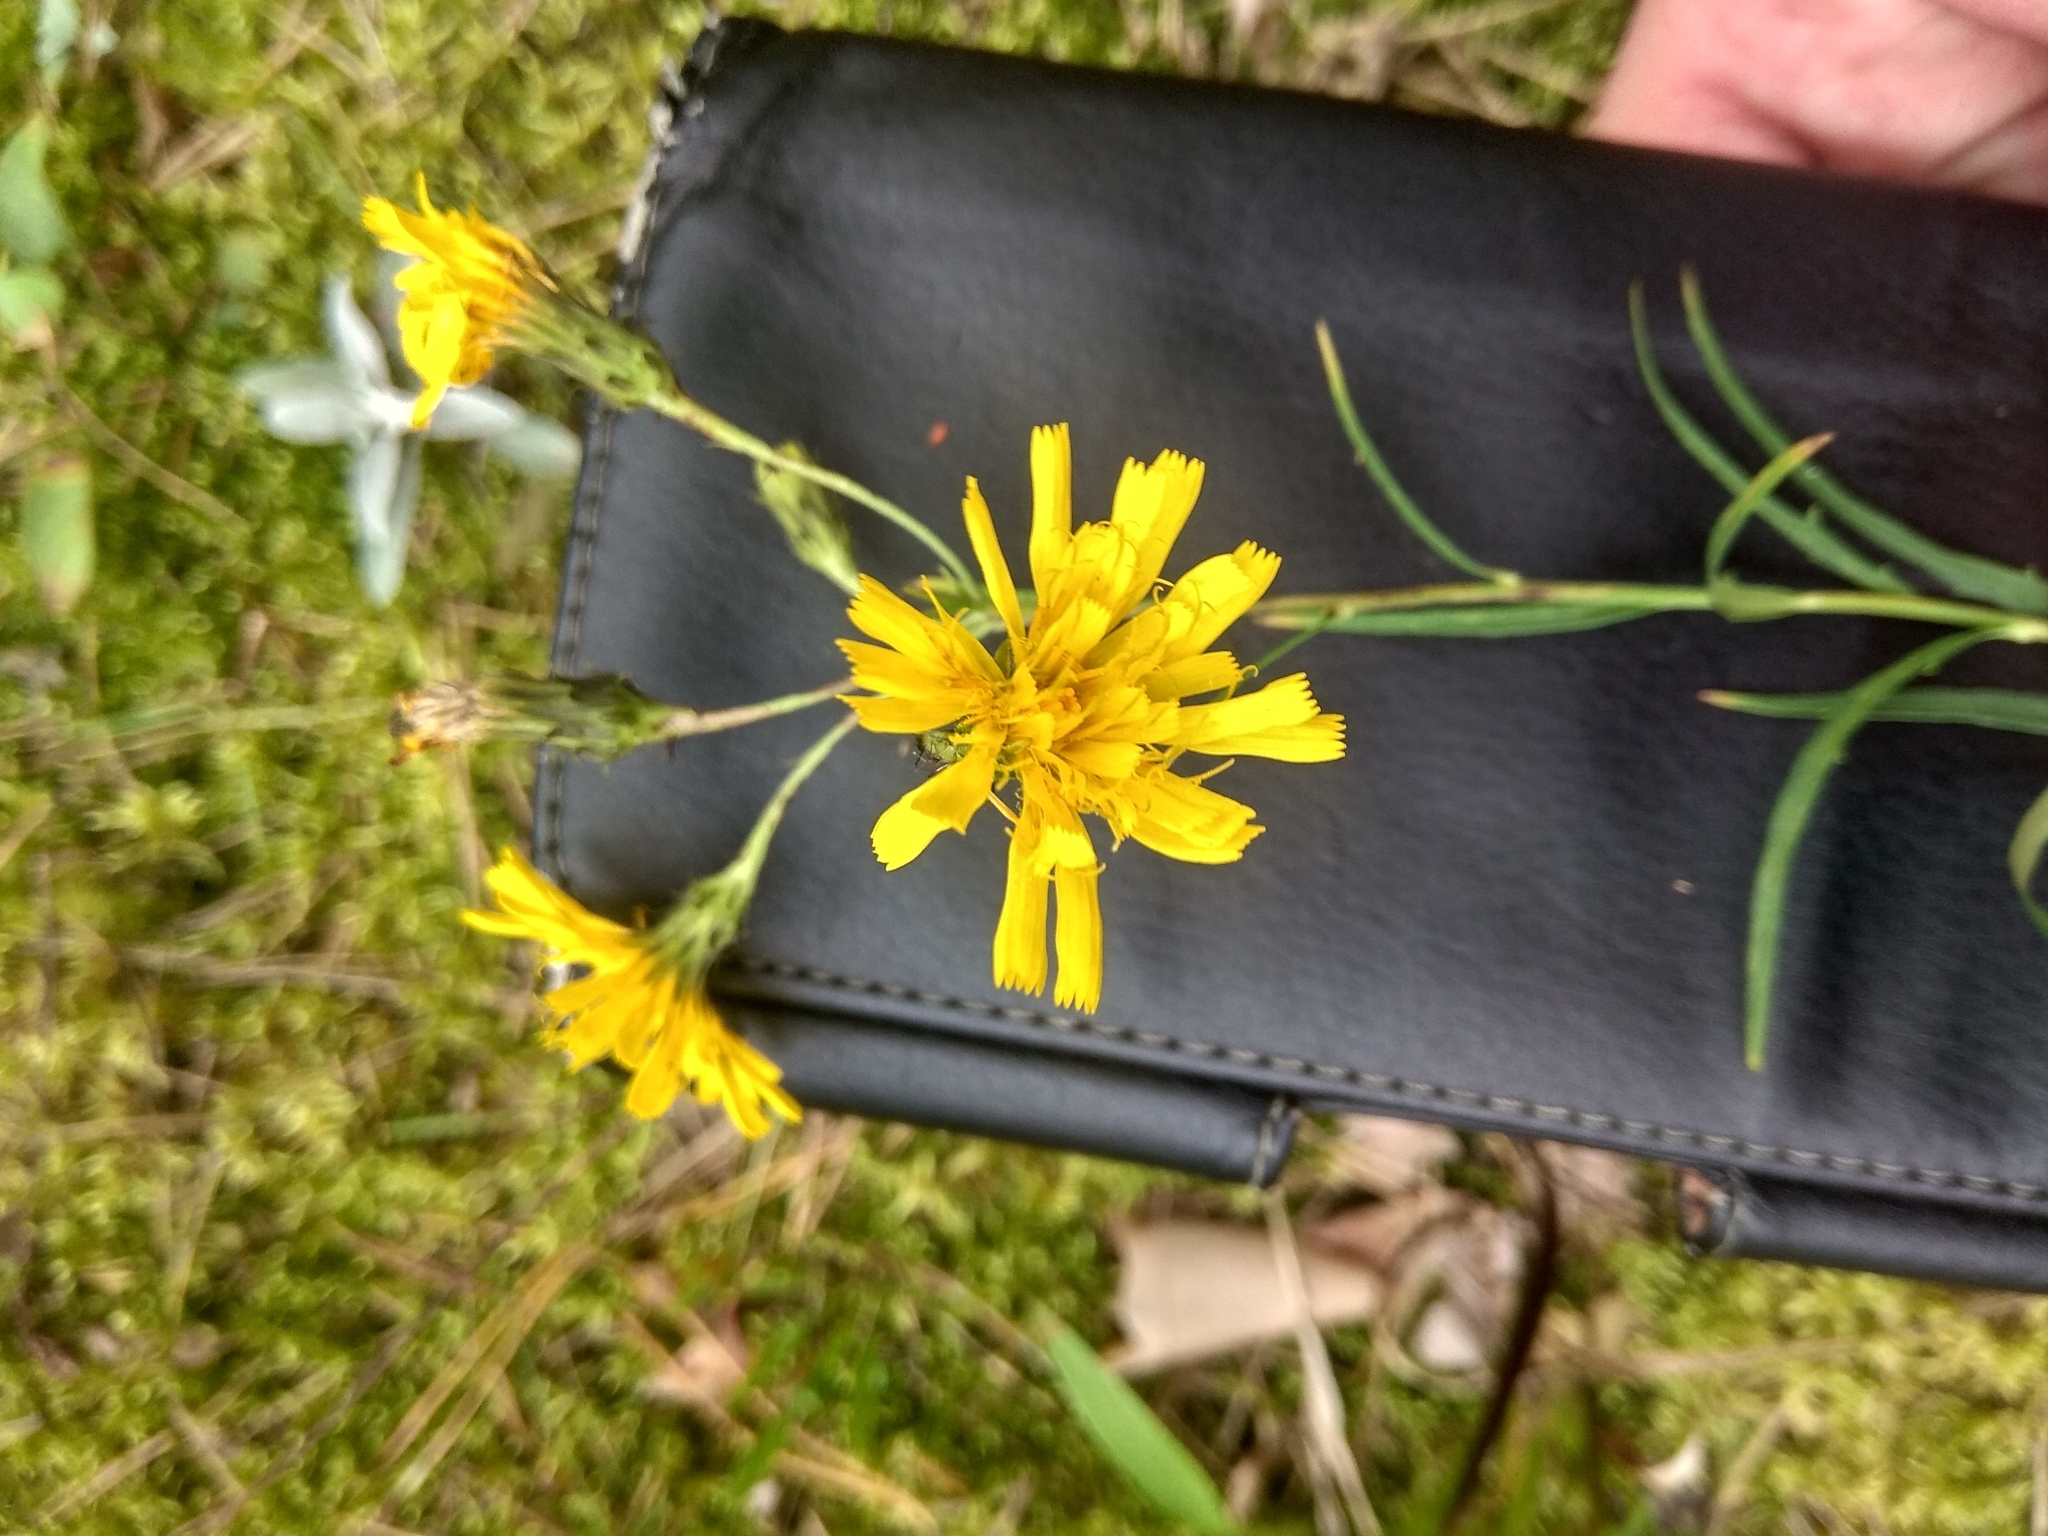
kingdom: Plantae
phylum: Tracheophyta
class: Magnoliopsida
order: Asterales
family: Asteraceae
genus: Hieracium
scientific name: Hieracium umbellatum
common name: Northern hawkweed
